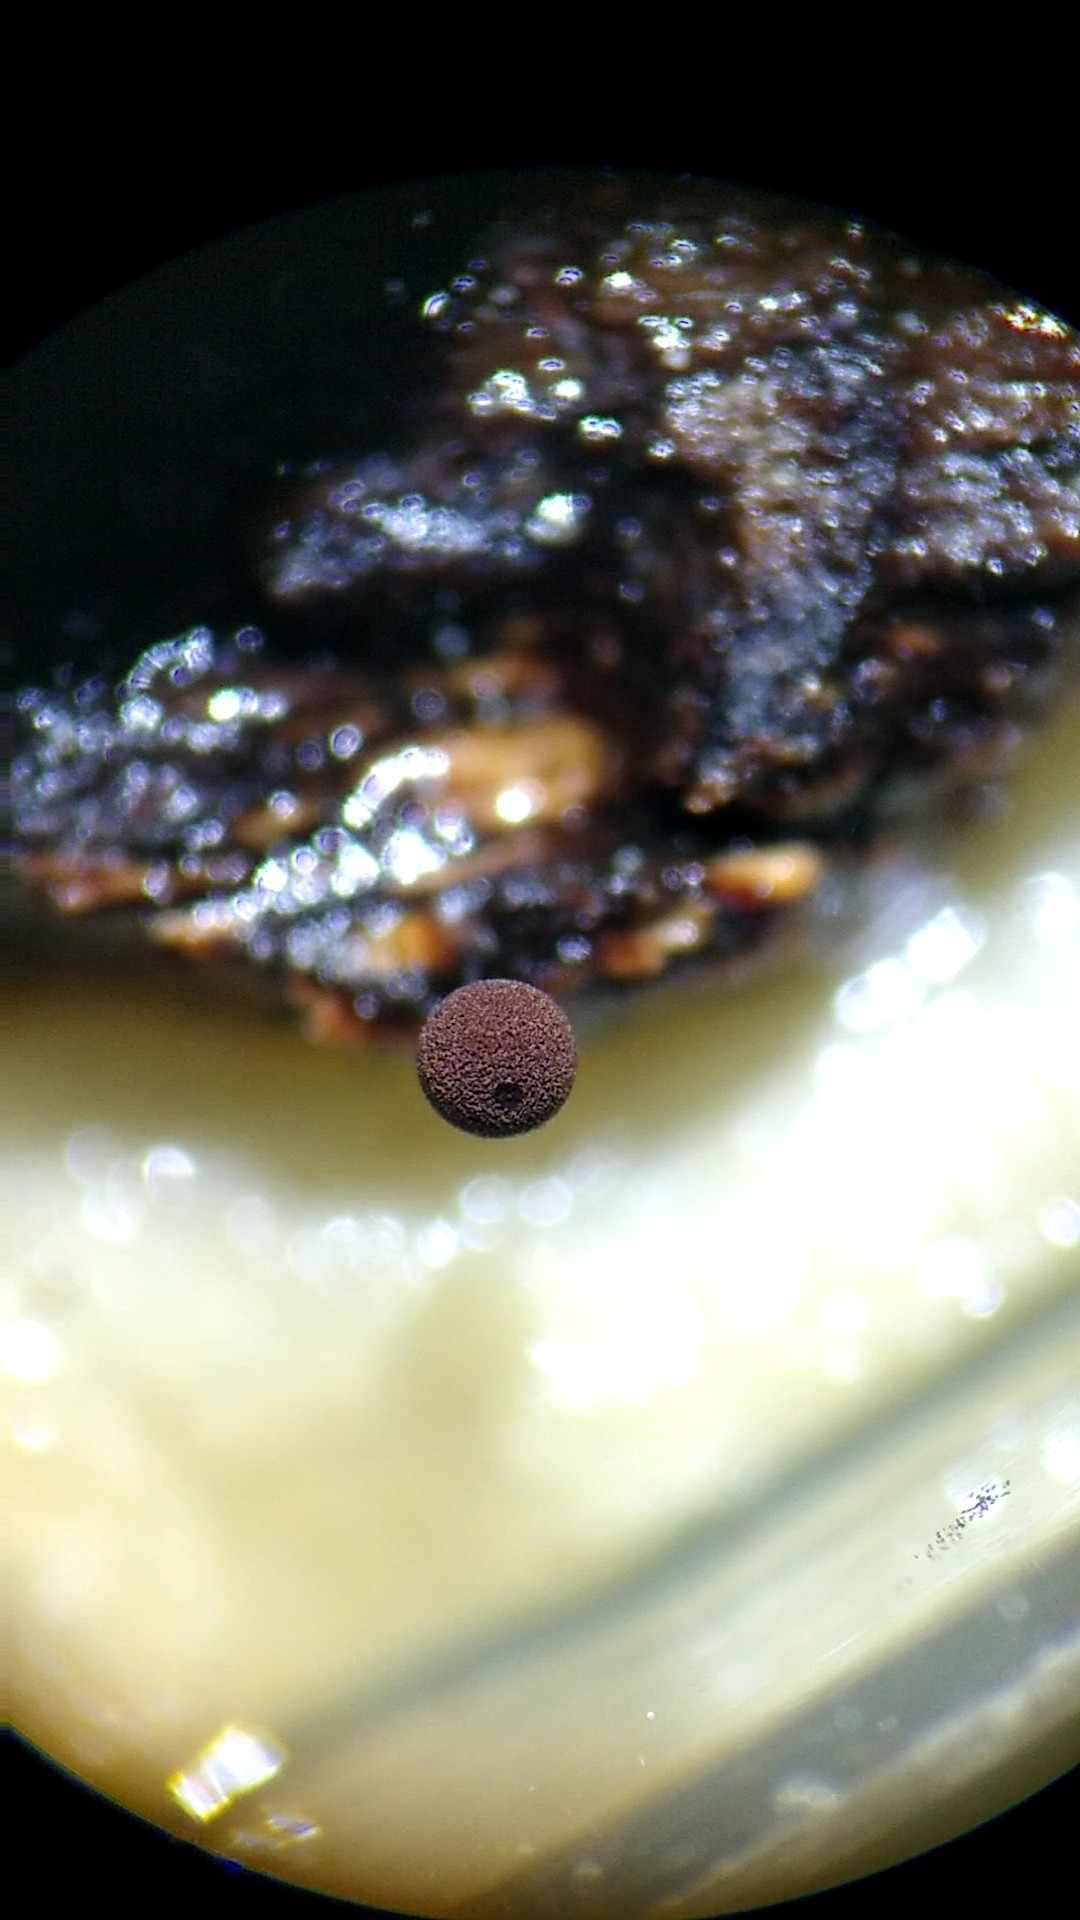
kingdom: Protozoa
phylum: Mycetozoa
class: Myxomycetes
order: Stemonitidales
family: Stemonitidaceae
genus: Enerthenema
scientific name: Enerthenema papillatum
